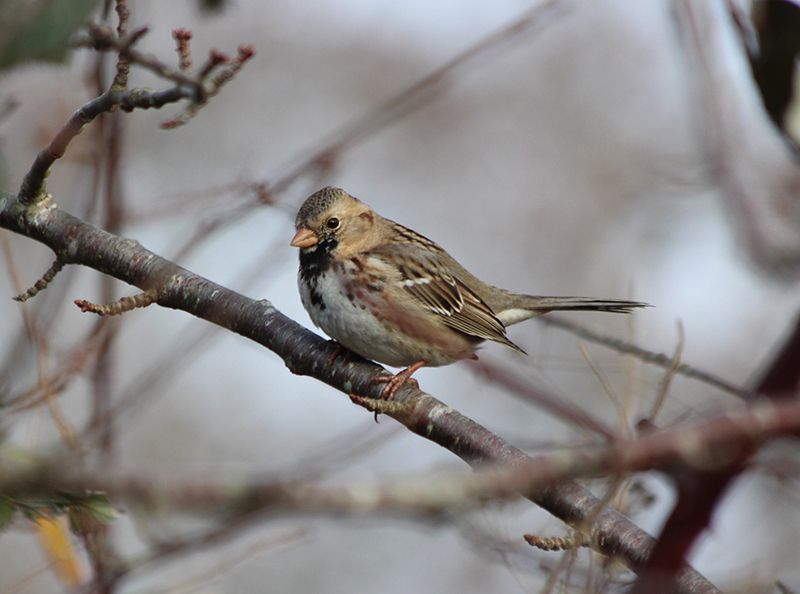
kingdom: Animalia
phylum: Chordata
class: Aves
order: Passeriformes
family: Passerellidae
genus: Zonotrichia
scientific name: Zonotrichia querula
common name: Harris's sparrow
